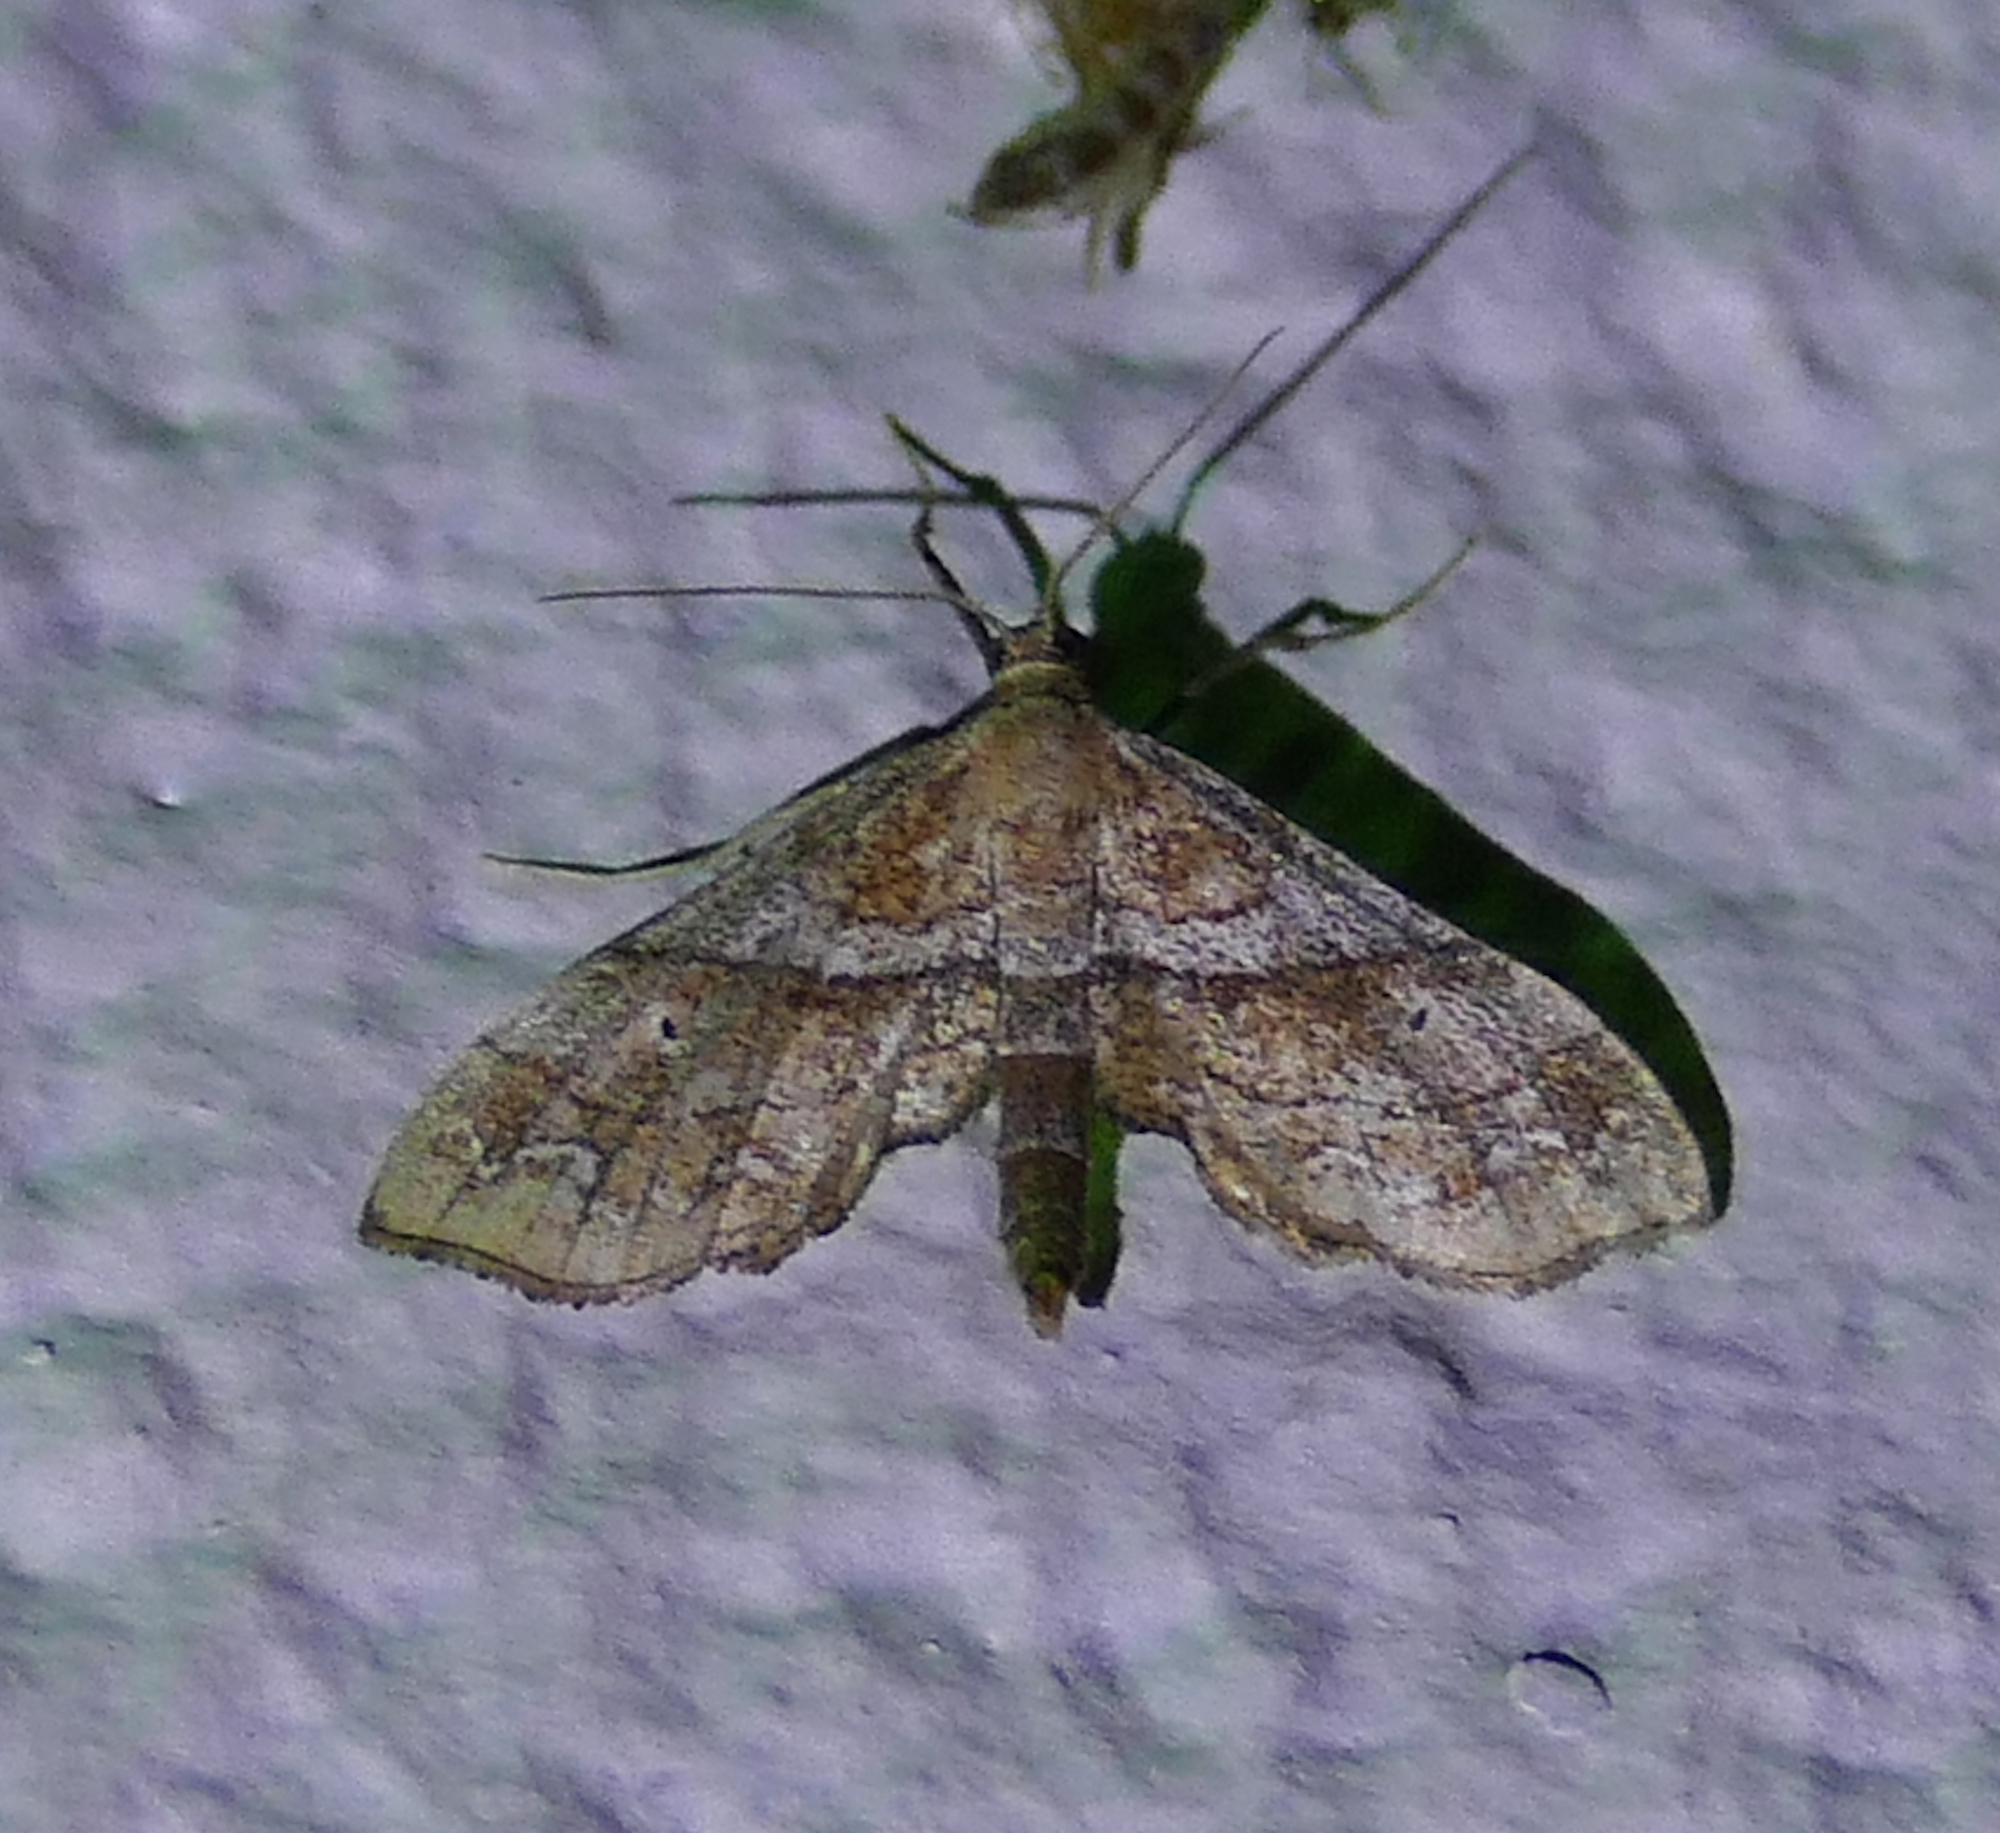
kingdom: Animalia
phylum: Arthropoda
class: Insecta
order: Lepidoptera
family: Geometridae
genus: Odontoptila
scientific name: Odontoptila obrimo
